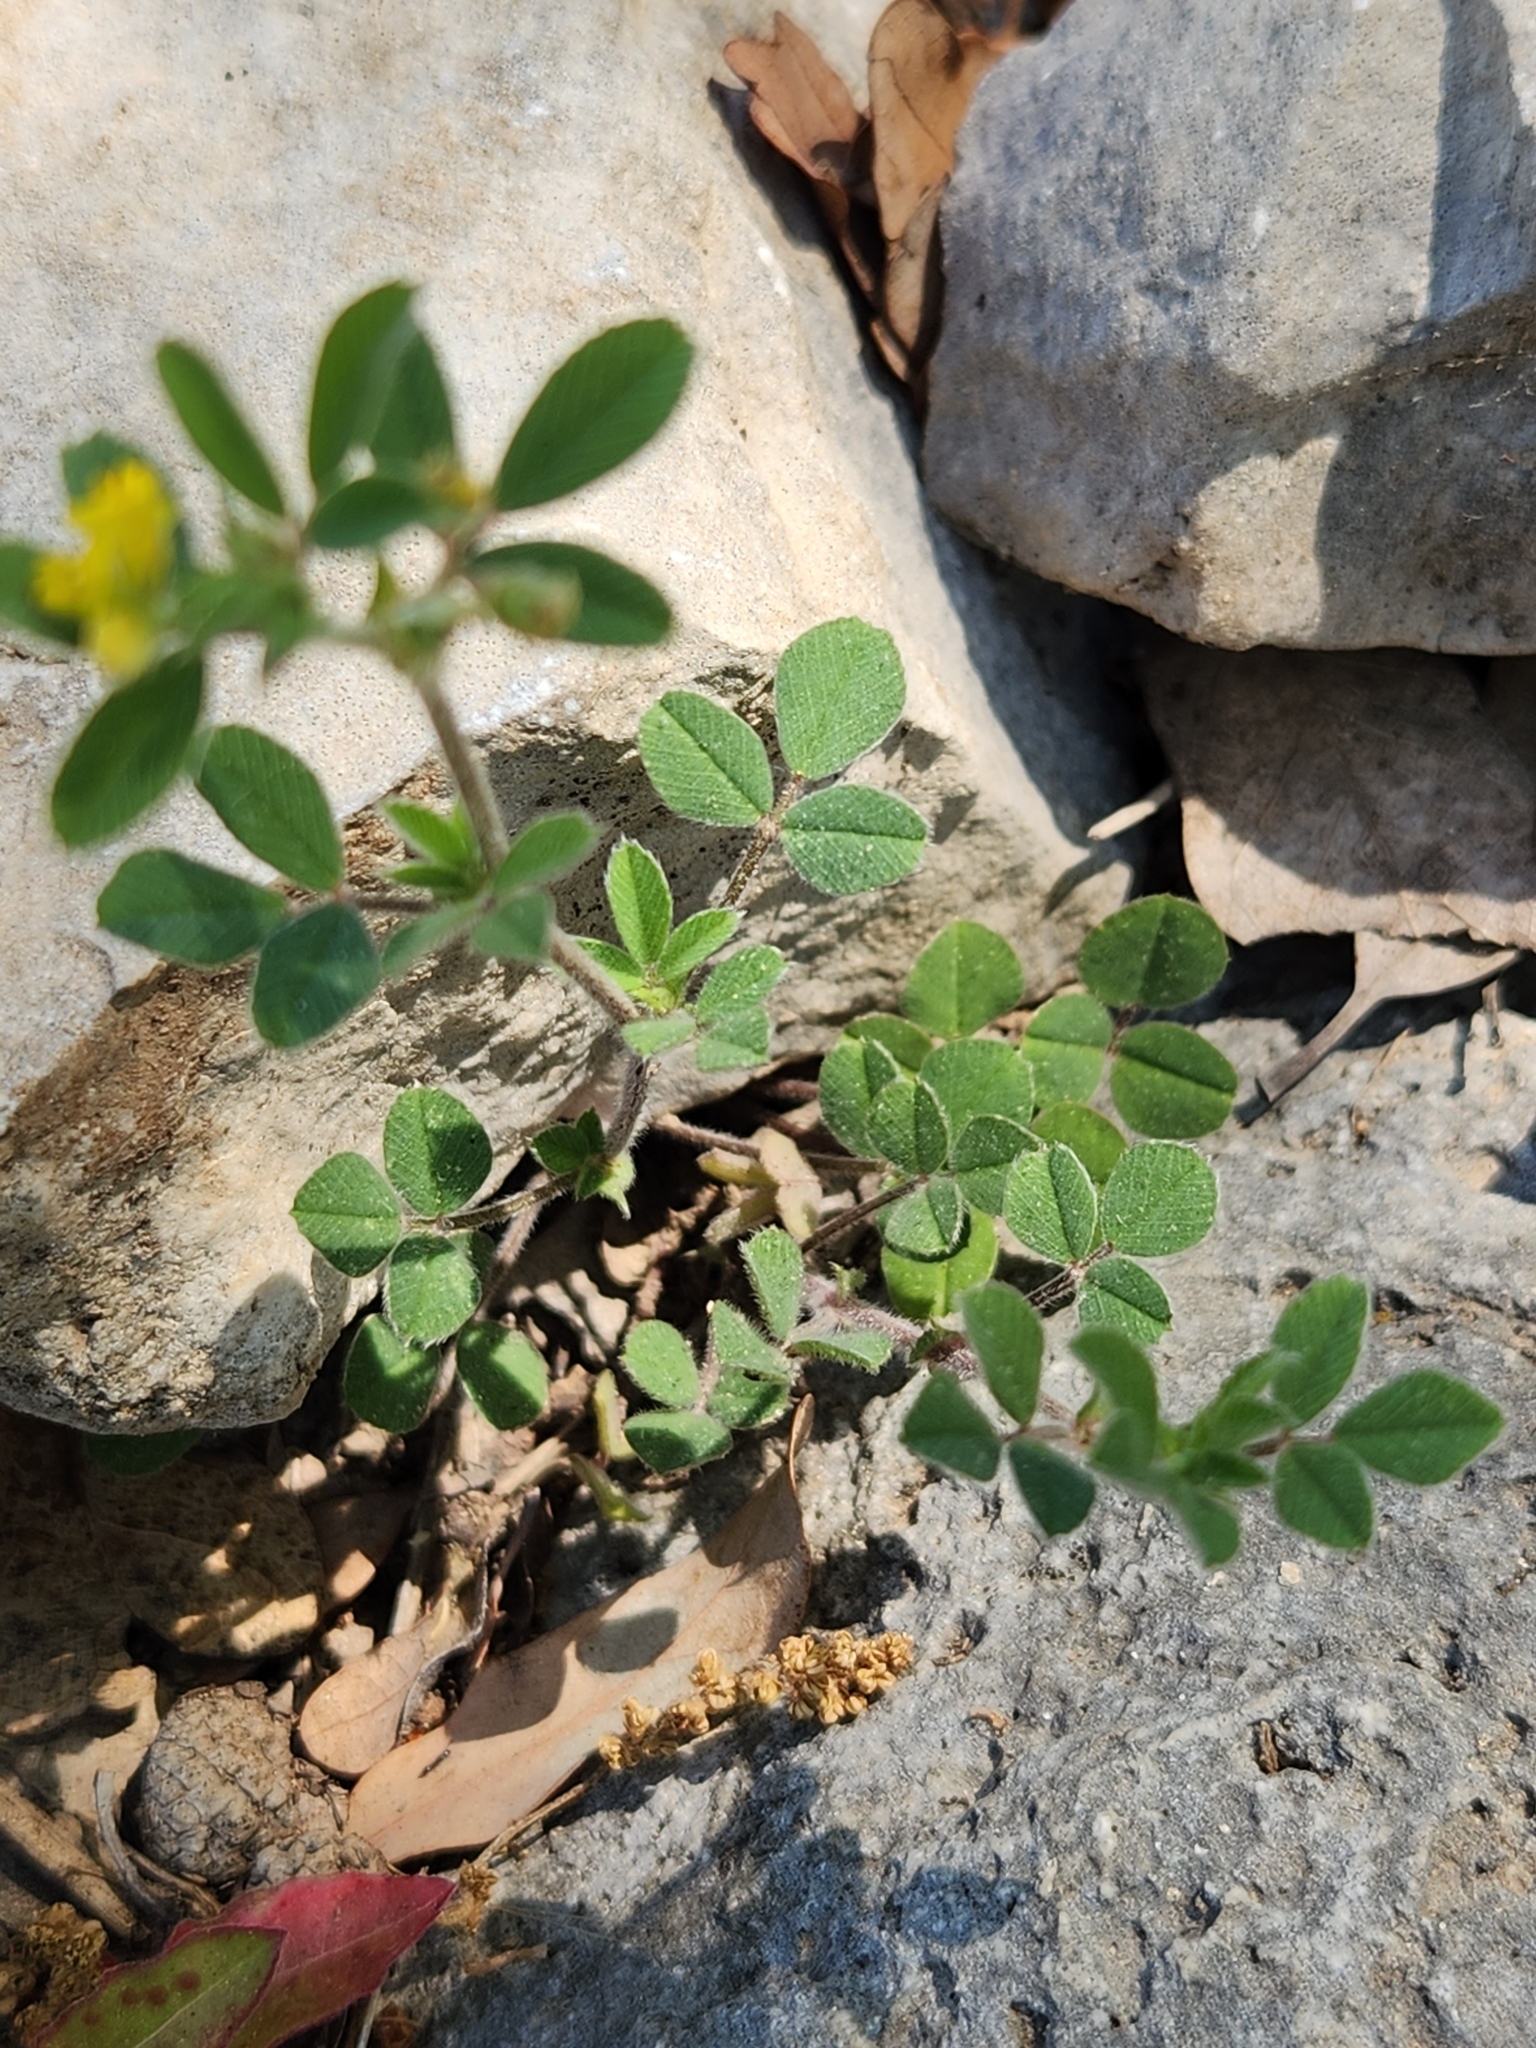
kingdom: Plantae
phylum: Tracheophyta
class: Magnoliopsida
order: Fabales
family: Fabaceae
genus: Medicago
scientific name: Medicago minima
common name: Little bur-clover
